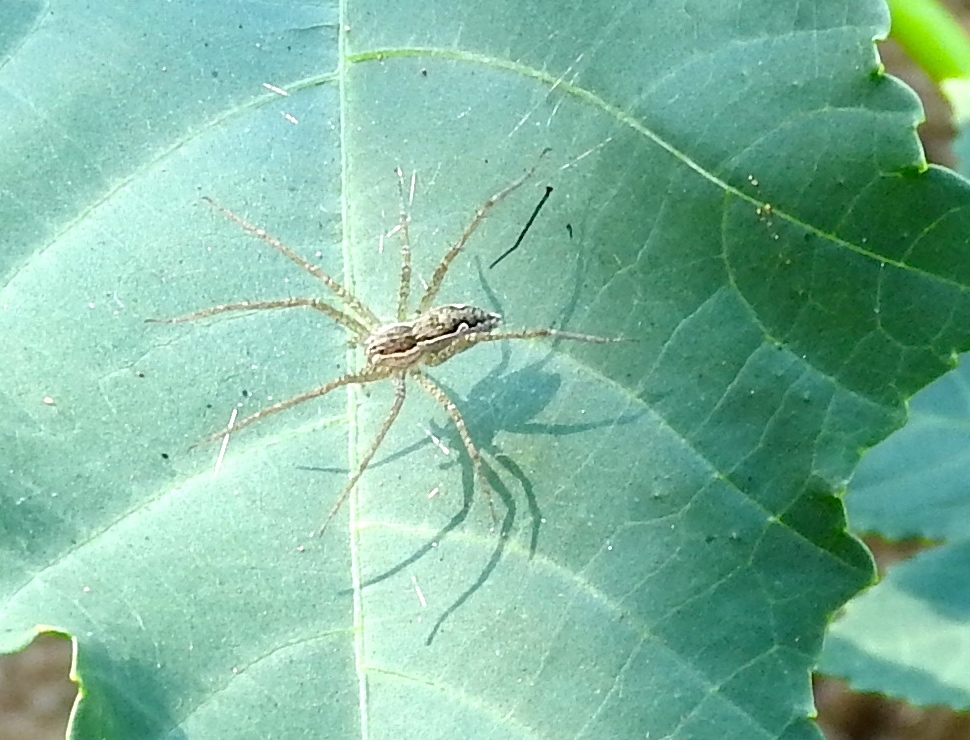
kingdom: Animalia
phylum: Arthropoda
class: Arachnida
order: Araneae
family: Pisauridae
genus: Tinus
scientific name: Tinus
